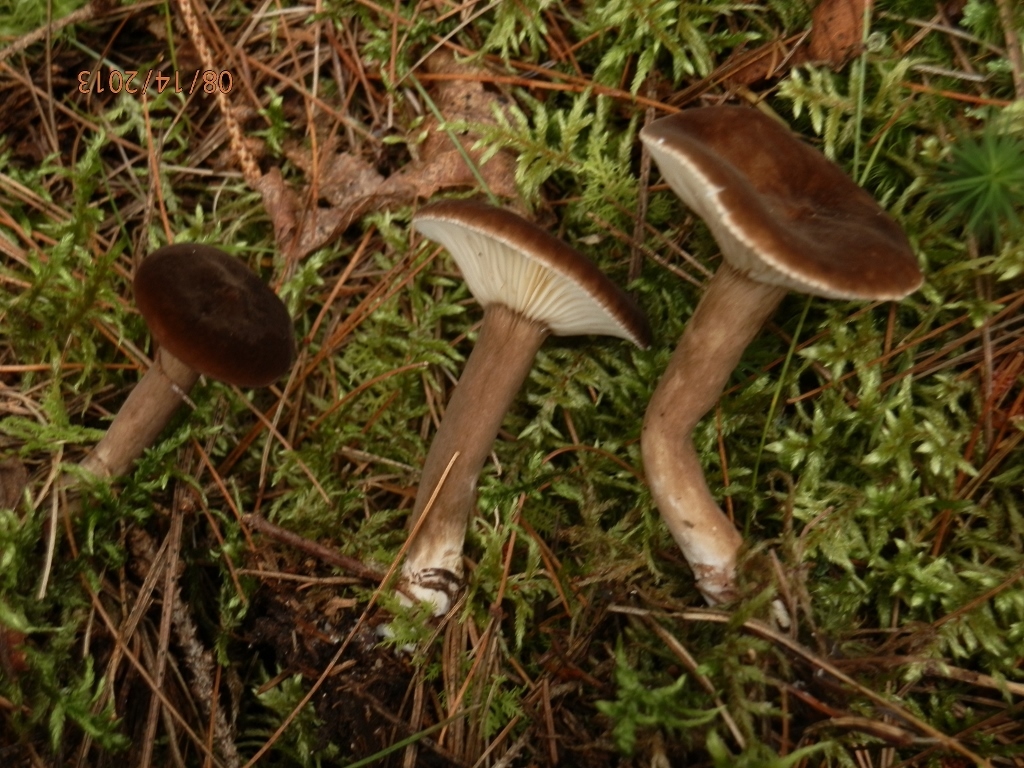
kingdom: Fungi
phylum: Basidiomycota
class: Agaricomycetes
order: Russulales
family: Russulaceae
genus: Lactarius
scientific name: Lactarius nigroviolascens
